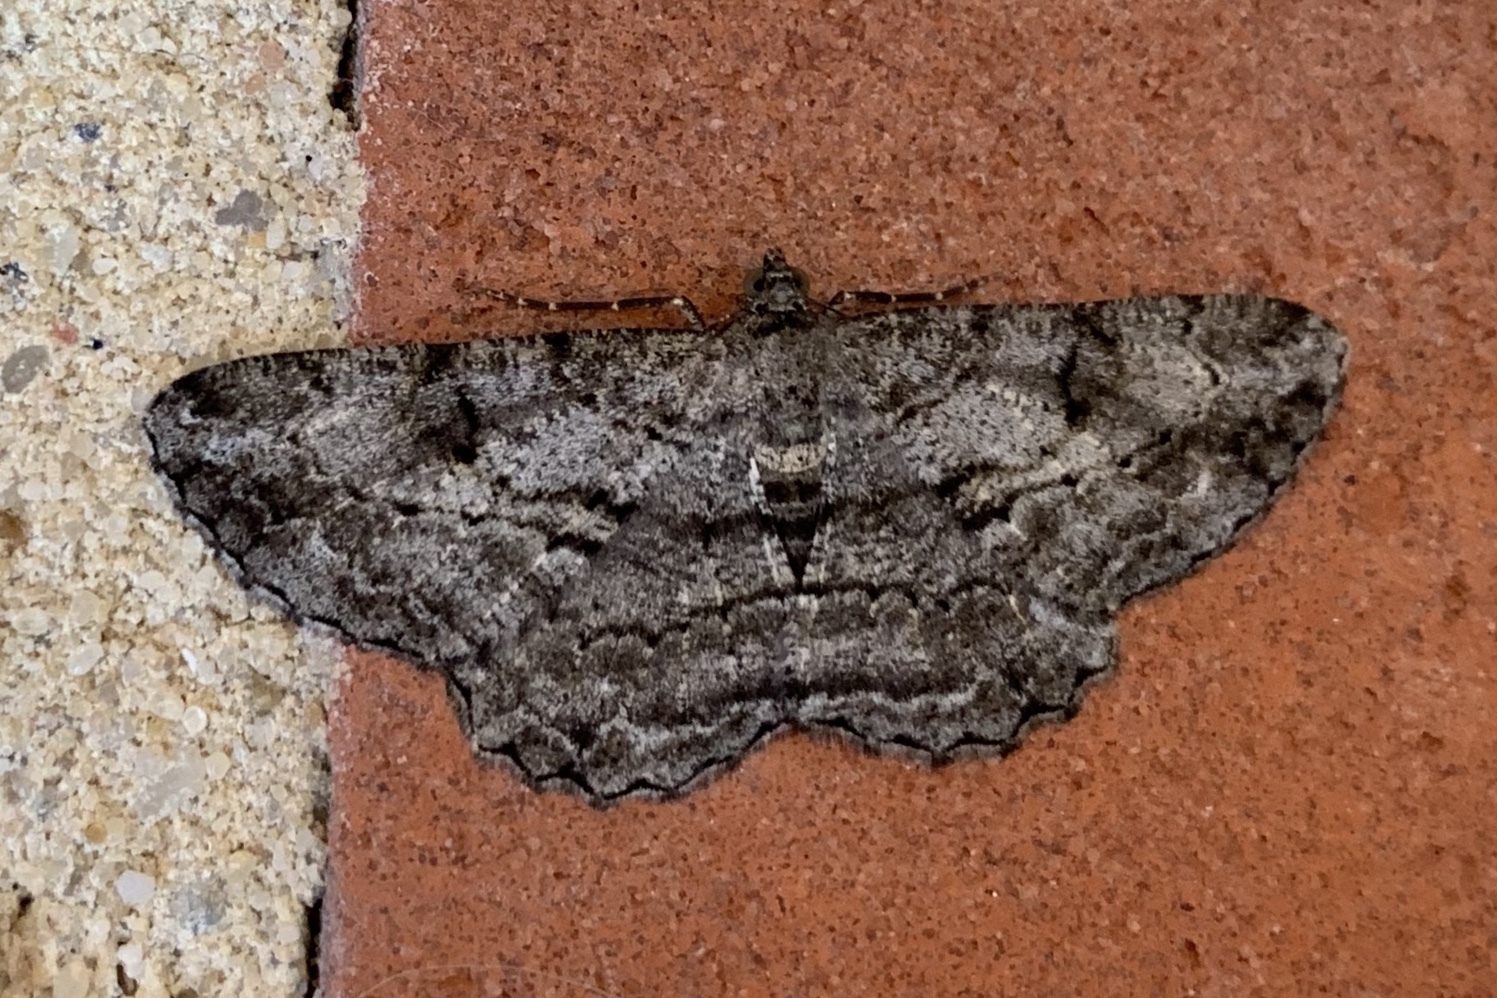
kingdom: Animalia
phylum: Arthropoda
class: Insecta
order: Lepidoptera
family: Geometridae
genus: Peribatodes
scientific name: Peribatodes rhomboidaria
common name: Willow beauty
